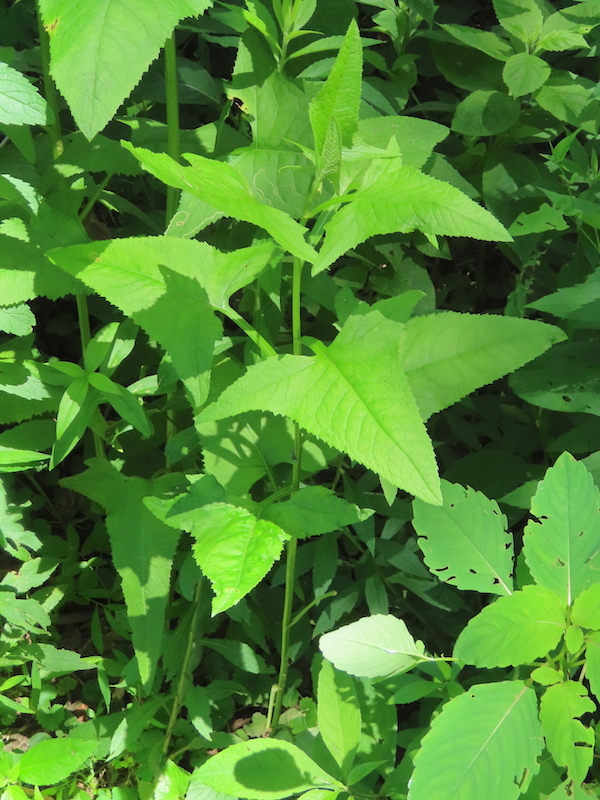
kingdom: Plantae
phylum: Tracheophyta
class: Magnoliopsida
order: Asterales
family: Asteraceae
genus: Hasteola
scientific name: Hasteola suaveolens
